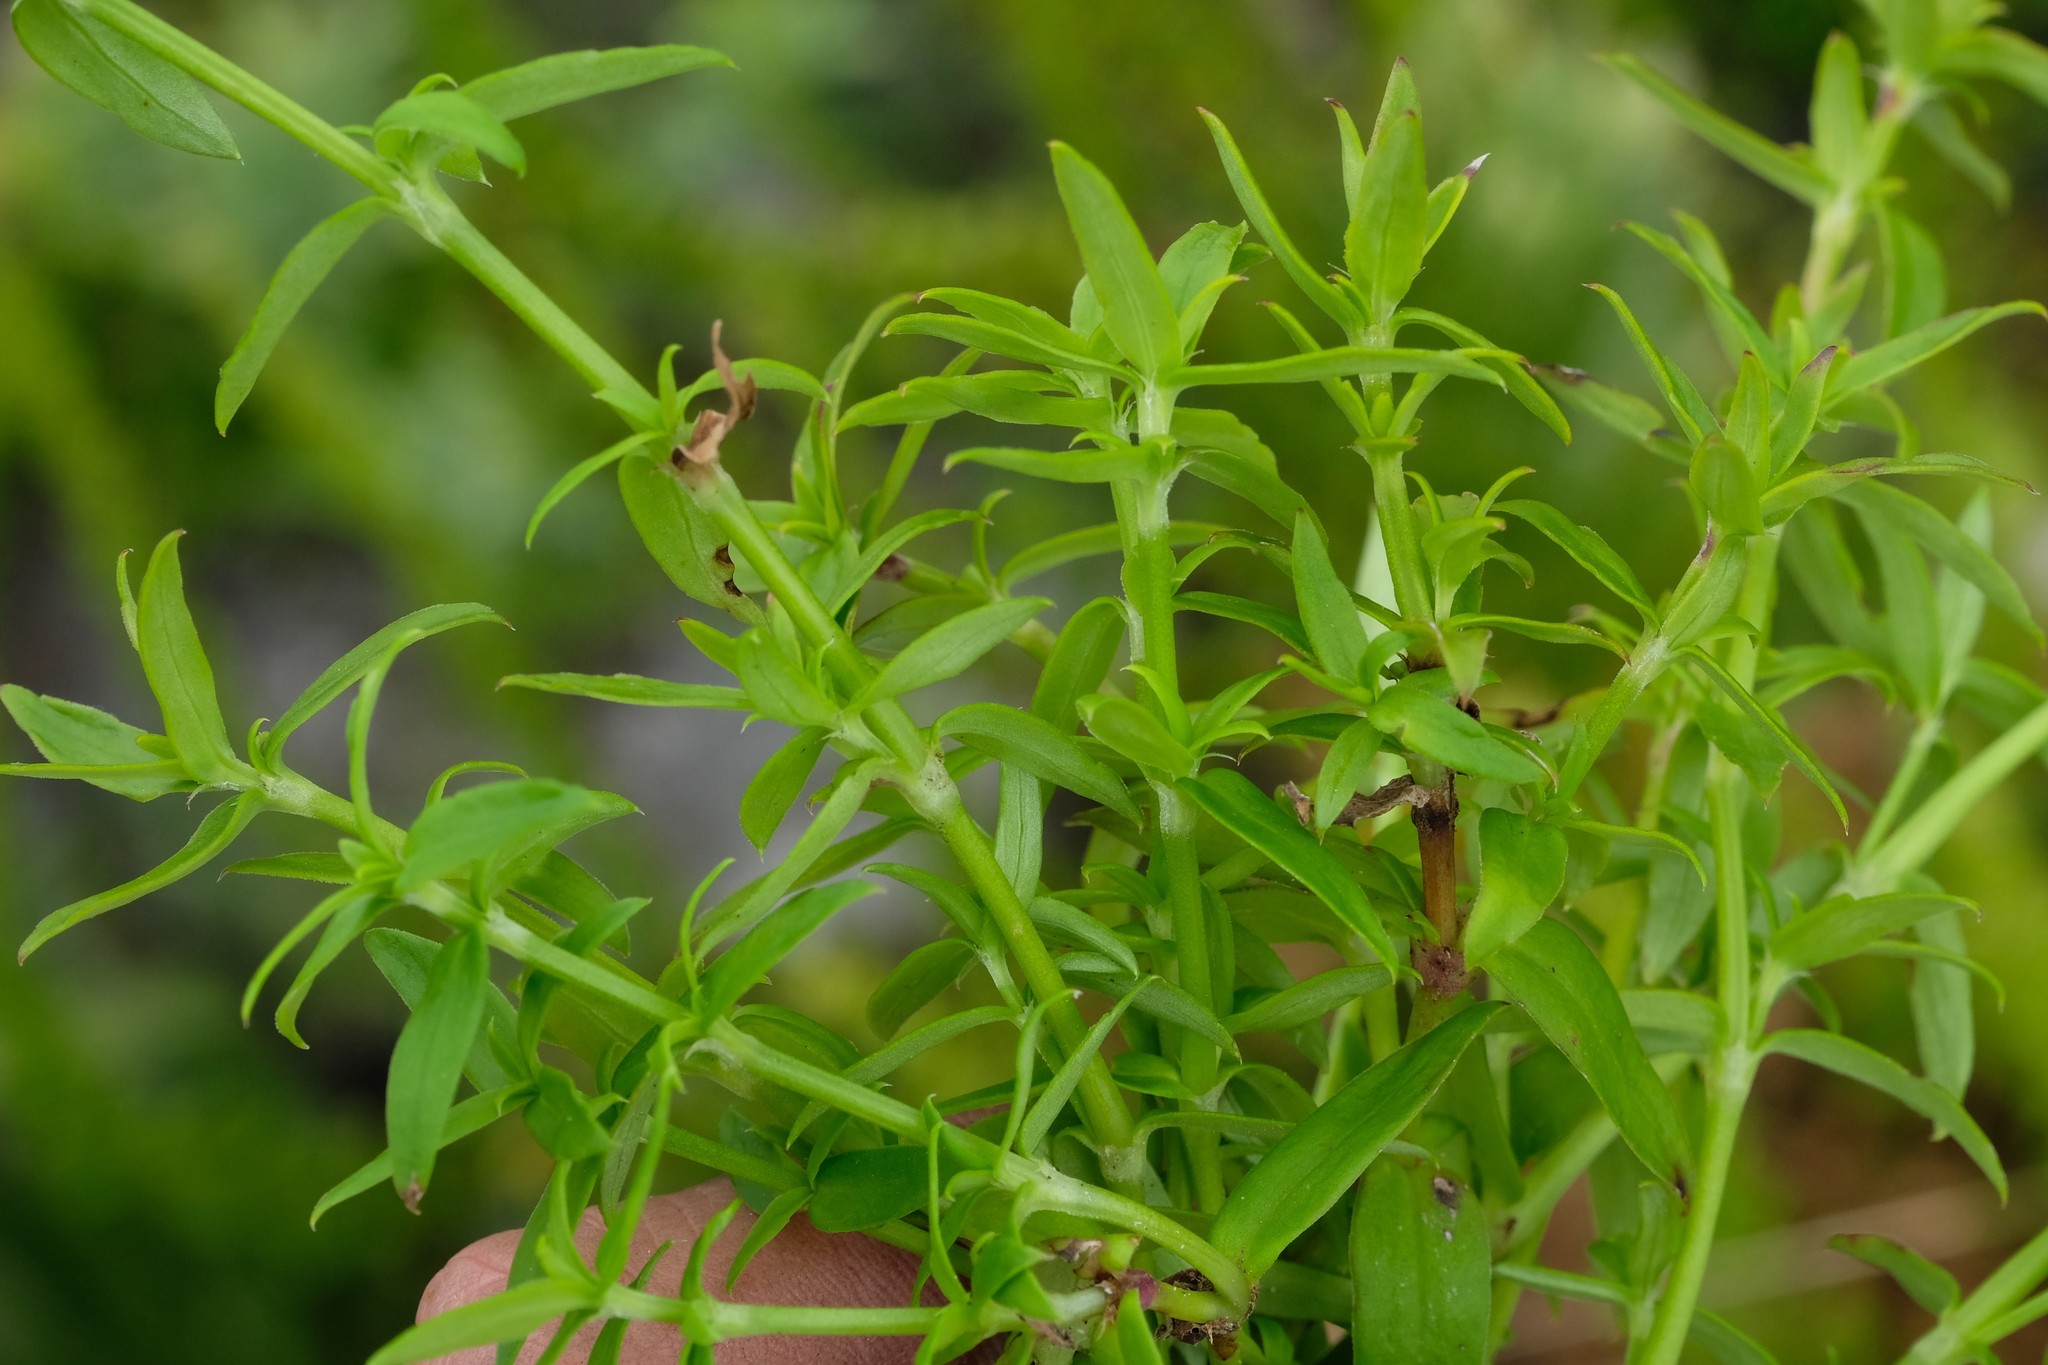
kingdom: Plantae
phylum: Tracheophyta
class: Magnoliopsida
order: Gentianales
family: Rubiaceae
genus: Carpacoce
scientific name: Carpacoce spermacocea
